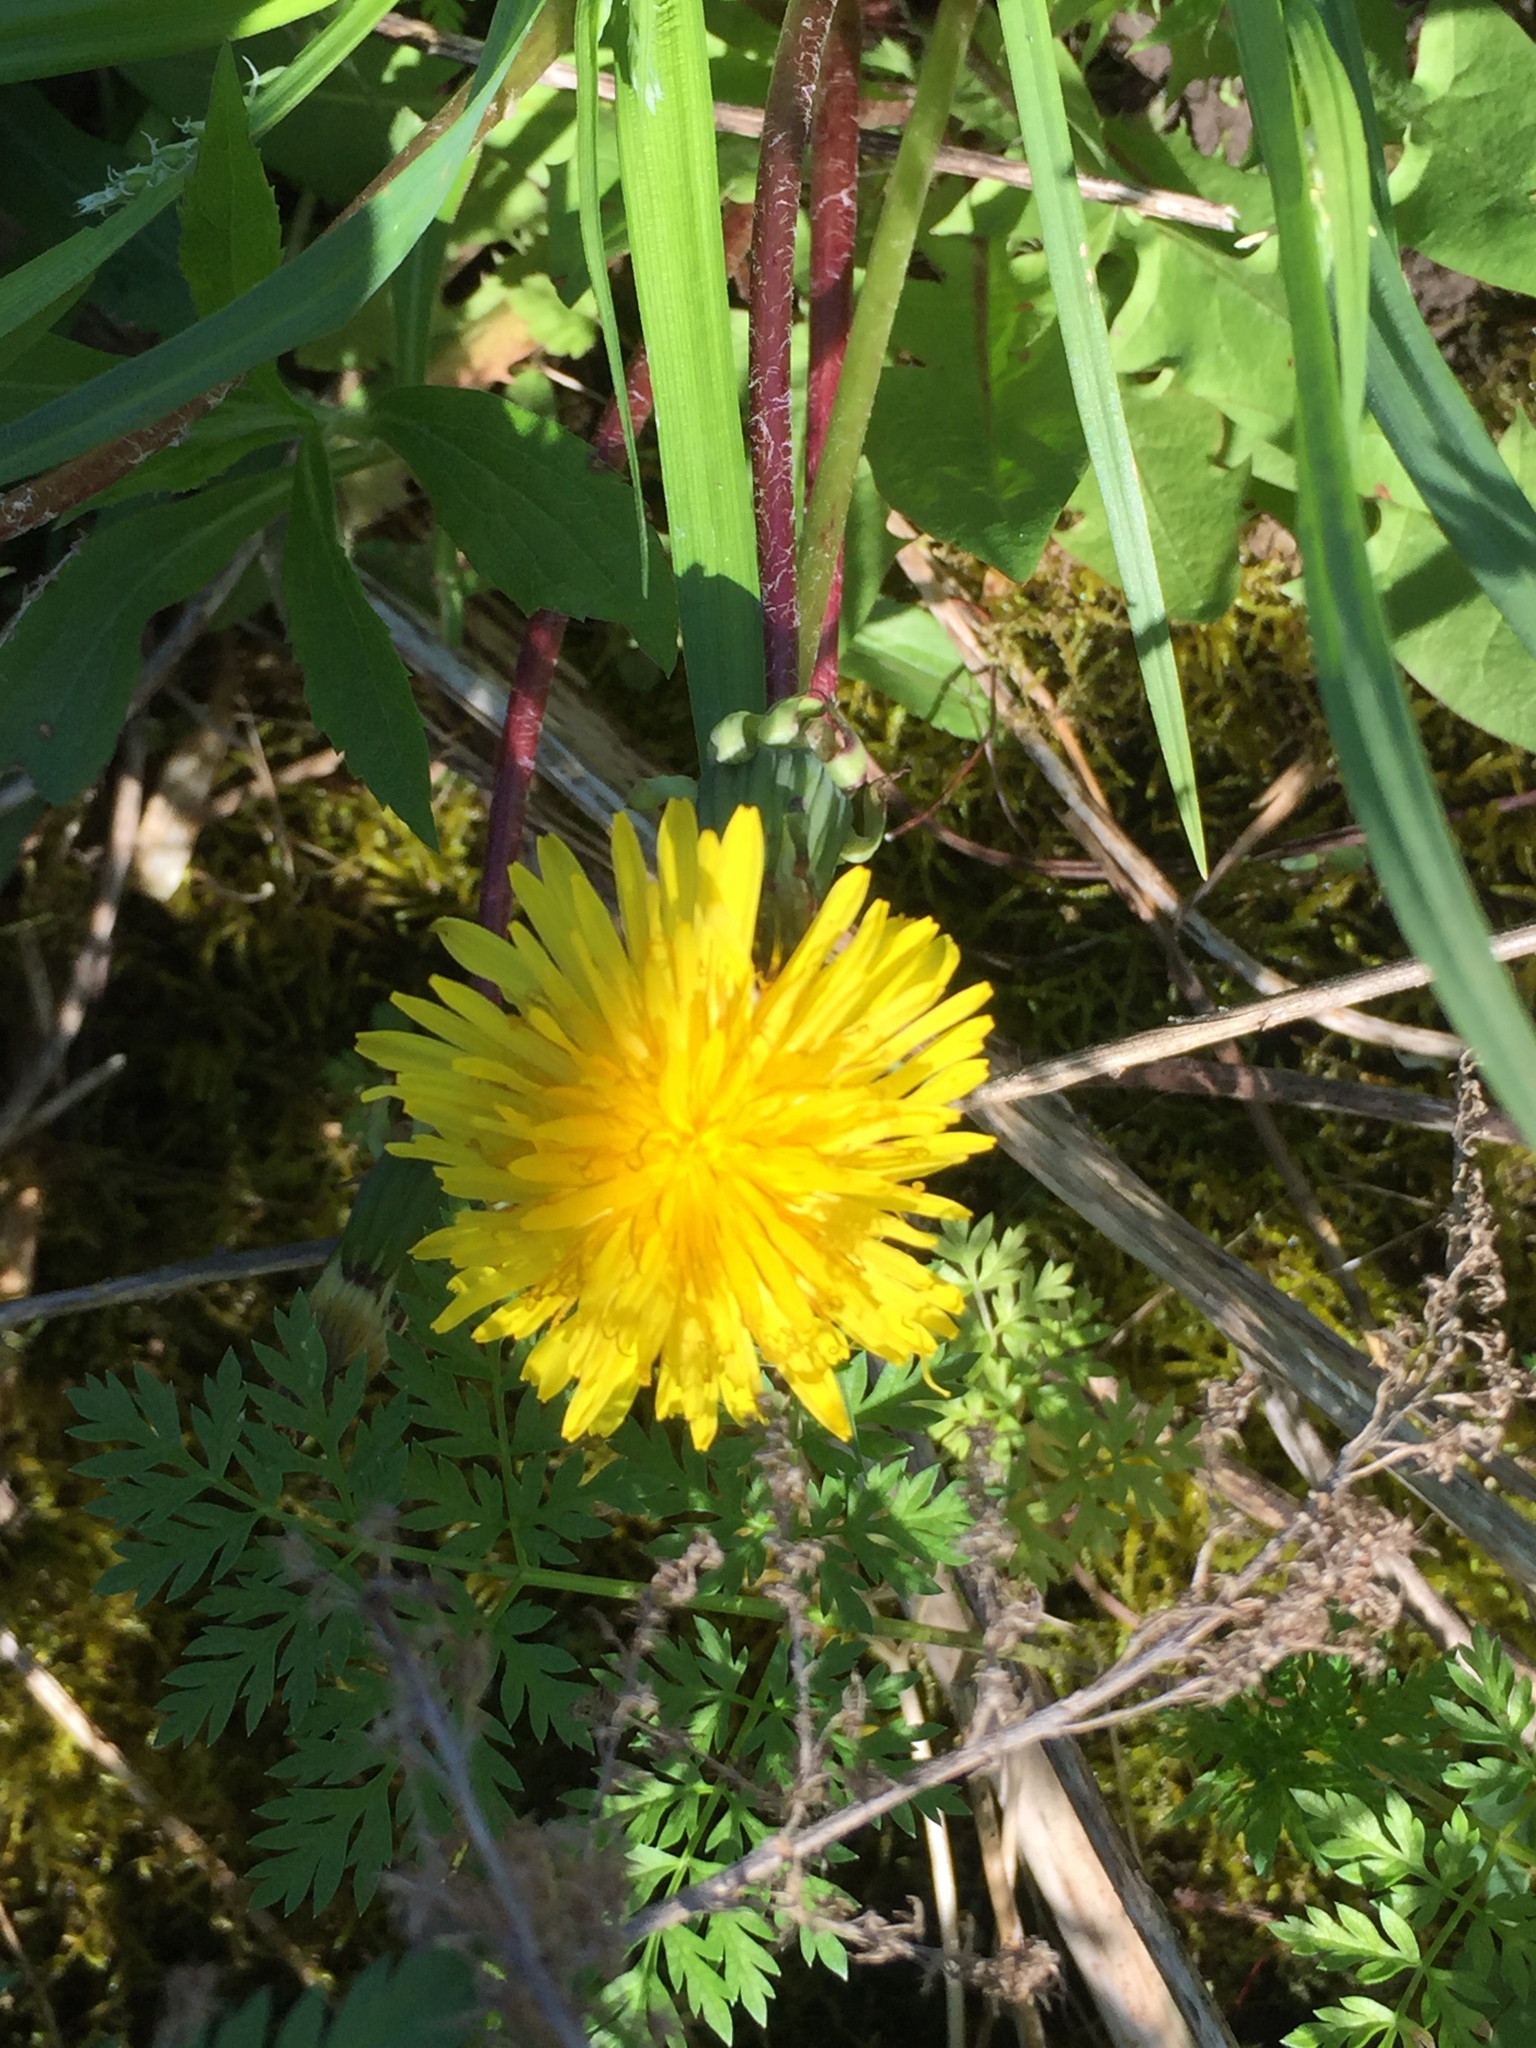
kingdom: Plantae
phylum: Tracheophyta
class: Magnoliopsida
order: Asterales
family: Asteraceae
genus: Taraxacum
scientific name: Taraxacum officinale
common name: Common dandelion
